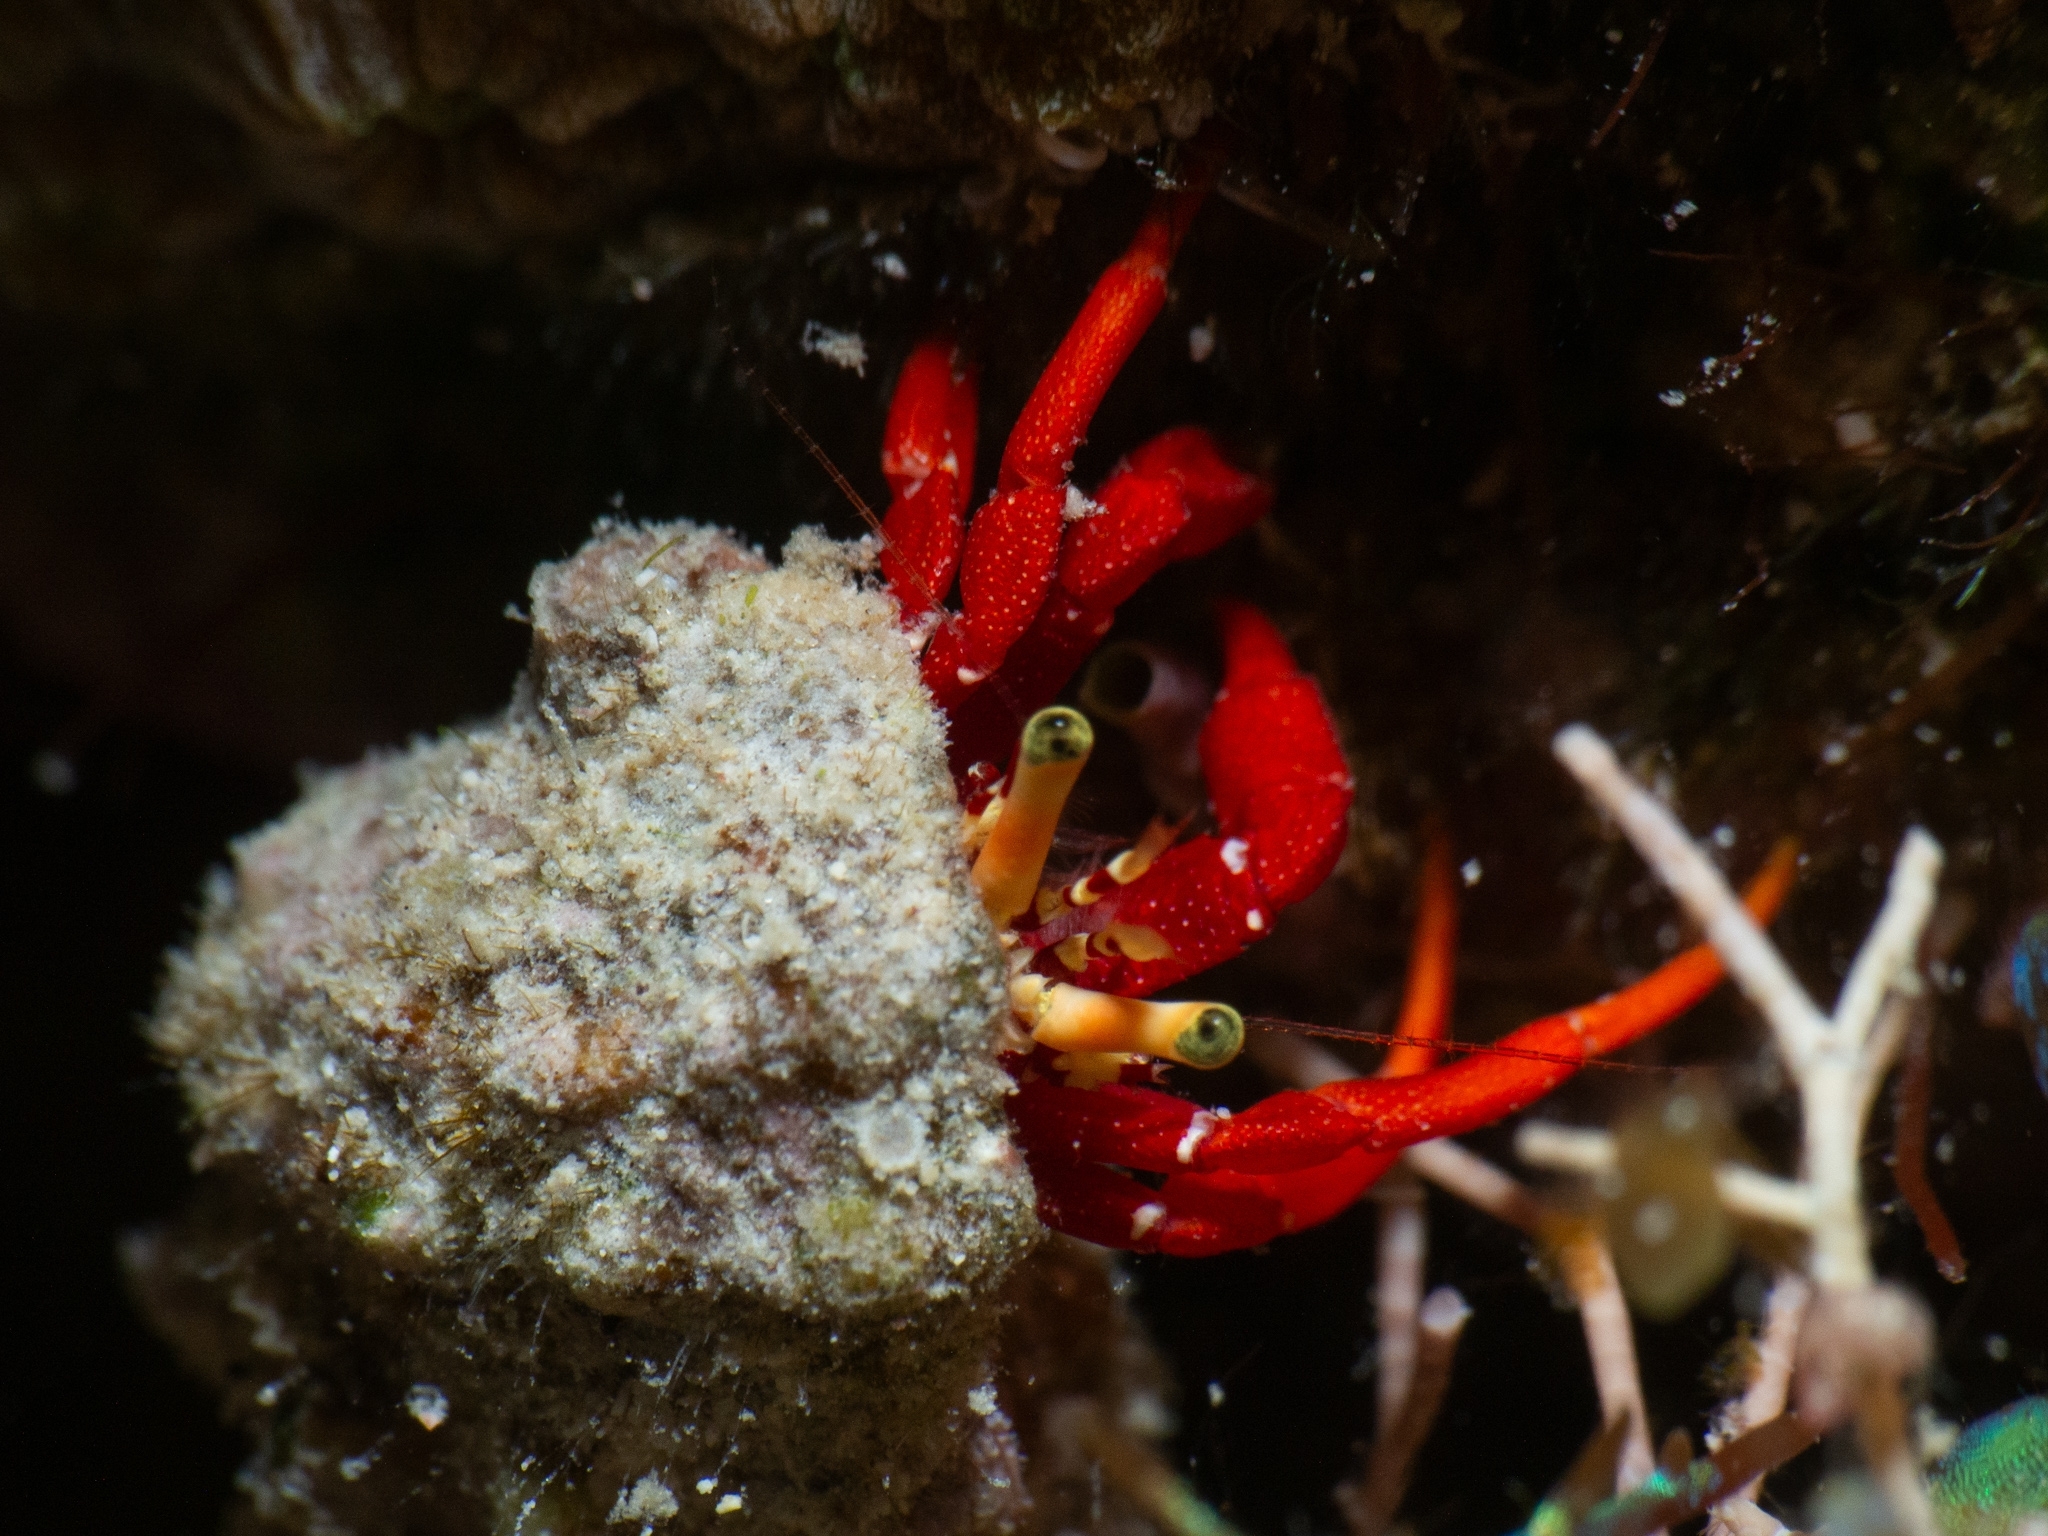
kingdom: Animalia
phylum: Arthropoda
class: Malacostraca
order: Decapoda
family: Diogenidae
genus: Paguristes
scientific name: Paguristes cadenati
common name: Red reef hermit
